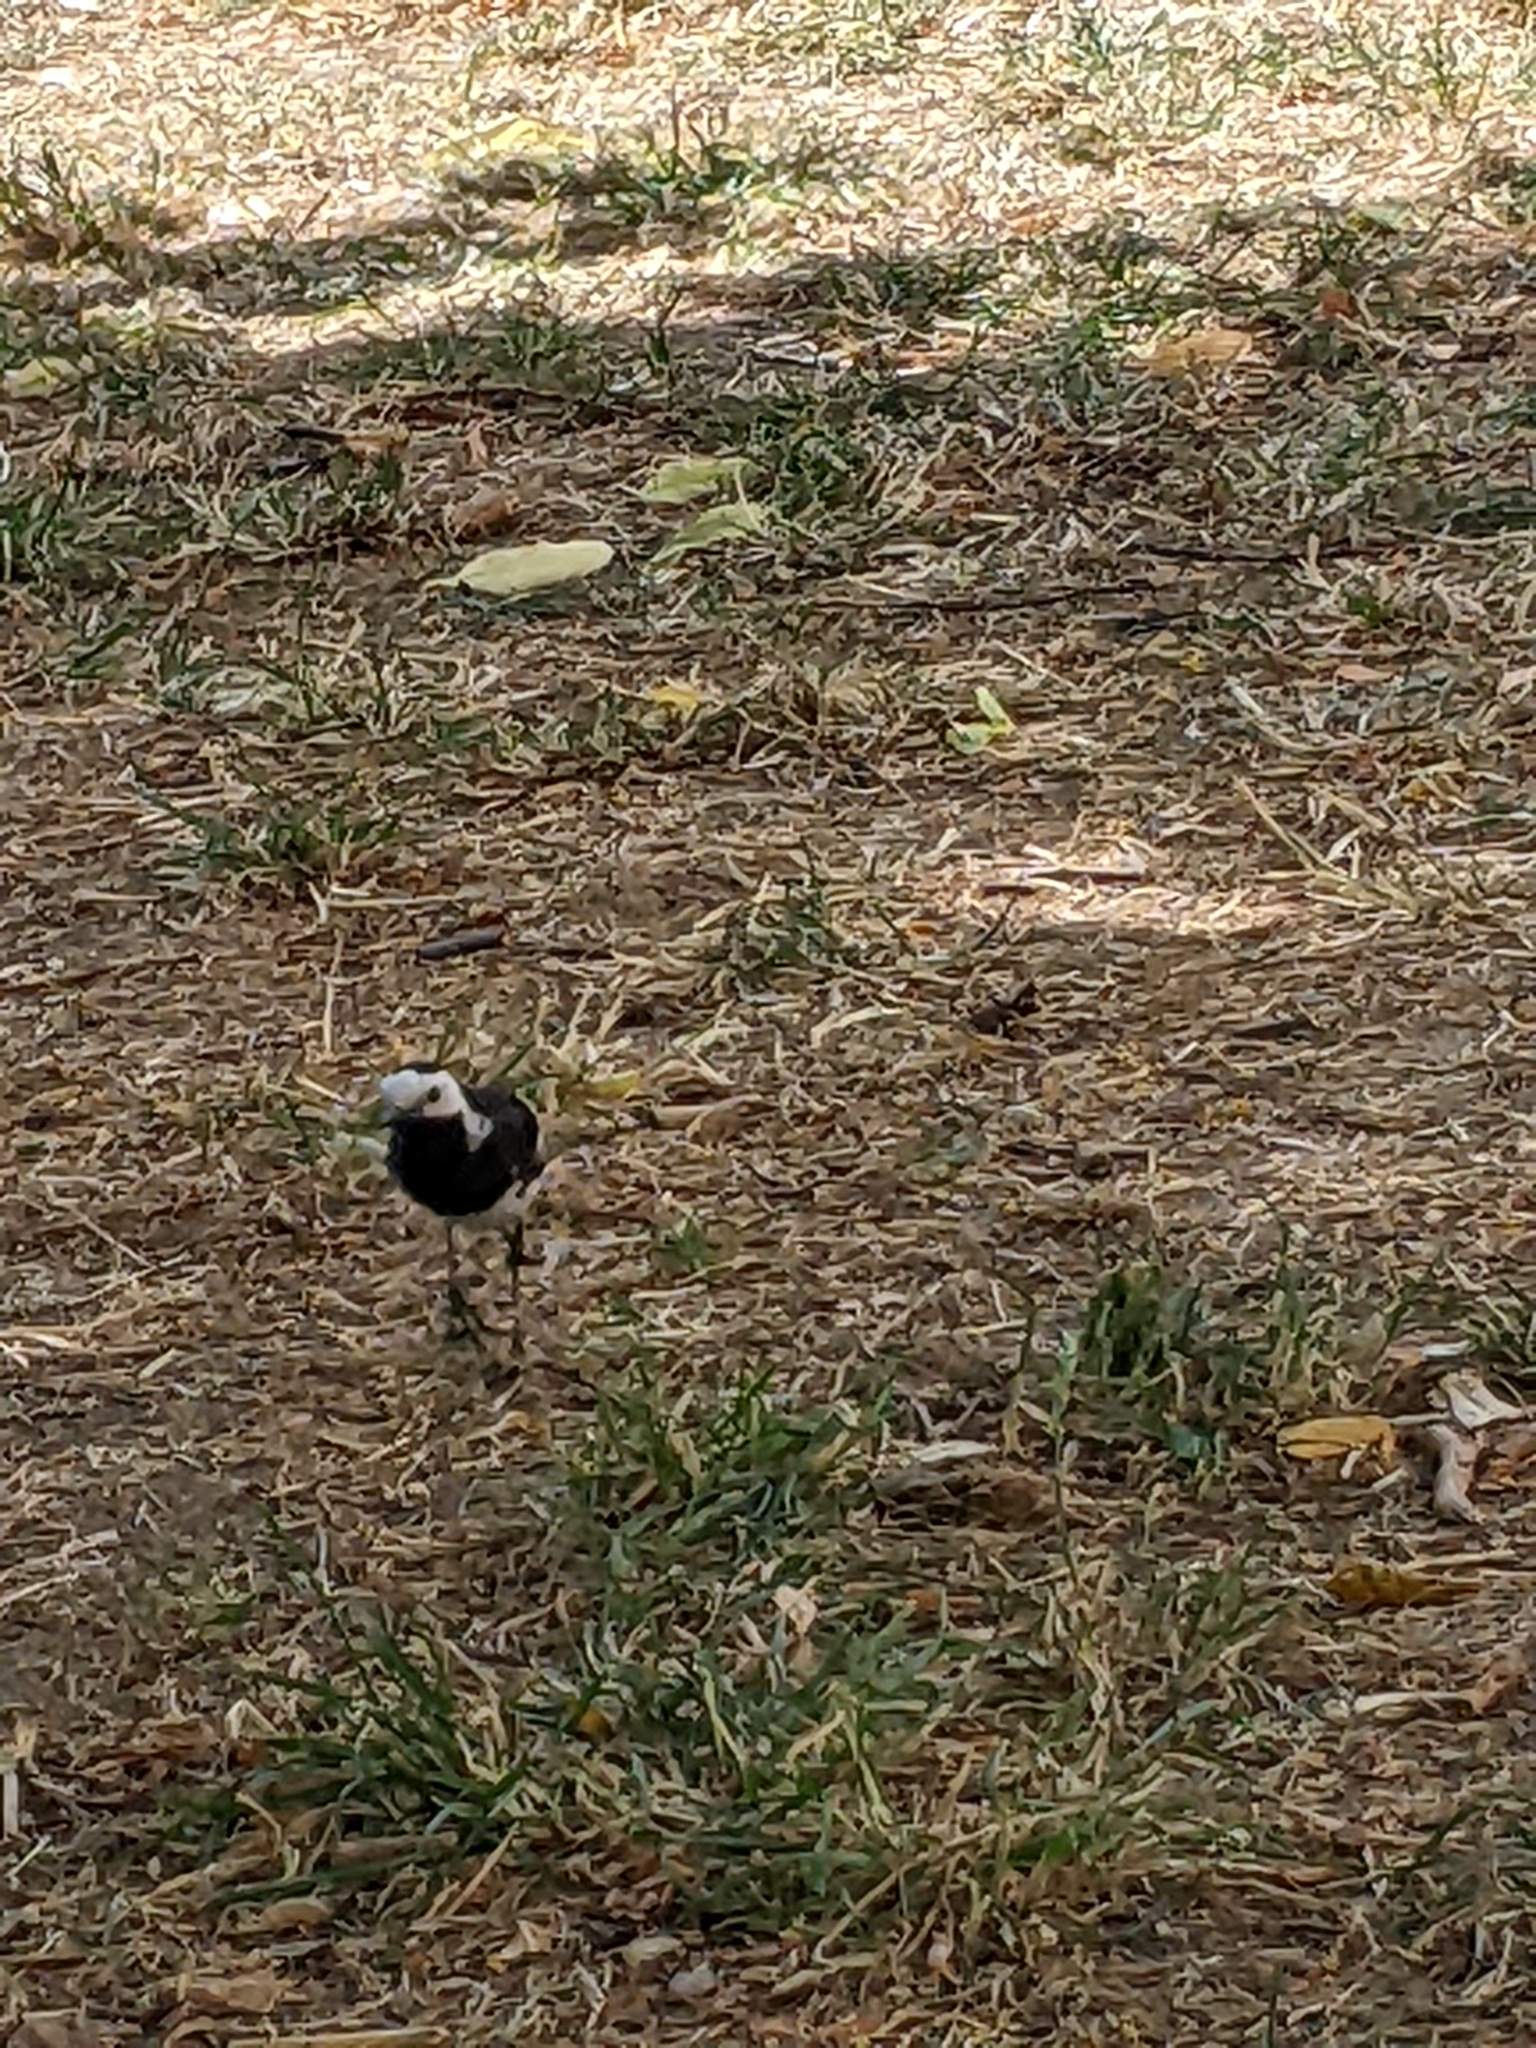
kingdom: Animalia
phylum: Chordata
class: Aves
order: Passeriformes
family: Motacillidae
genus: Motacilla
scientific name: Motacilla alba
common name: White wagtail
